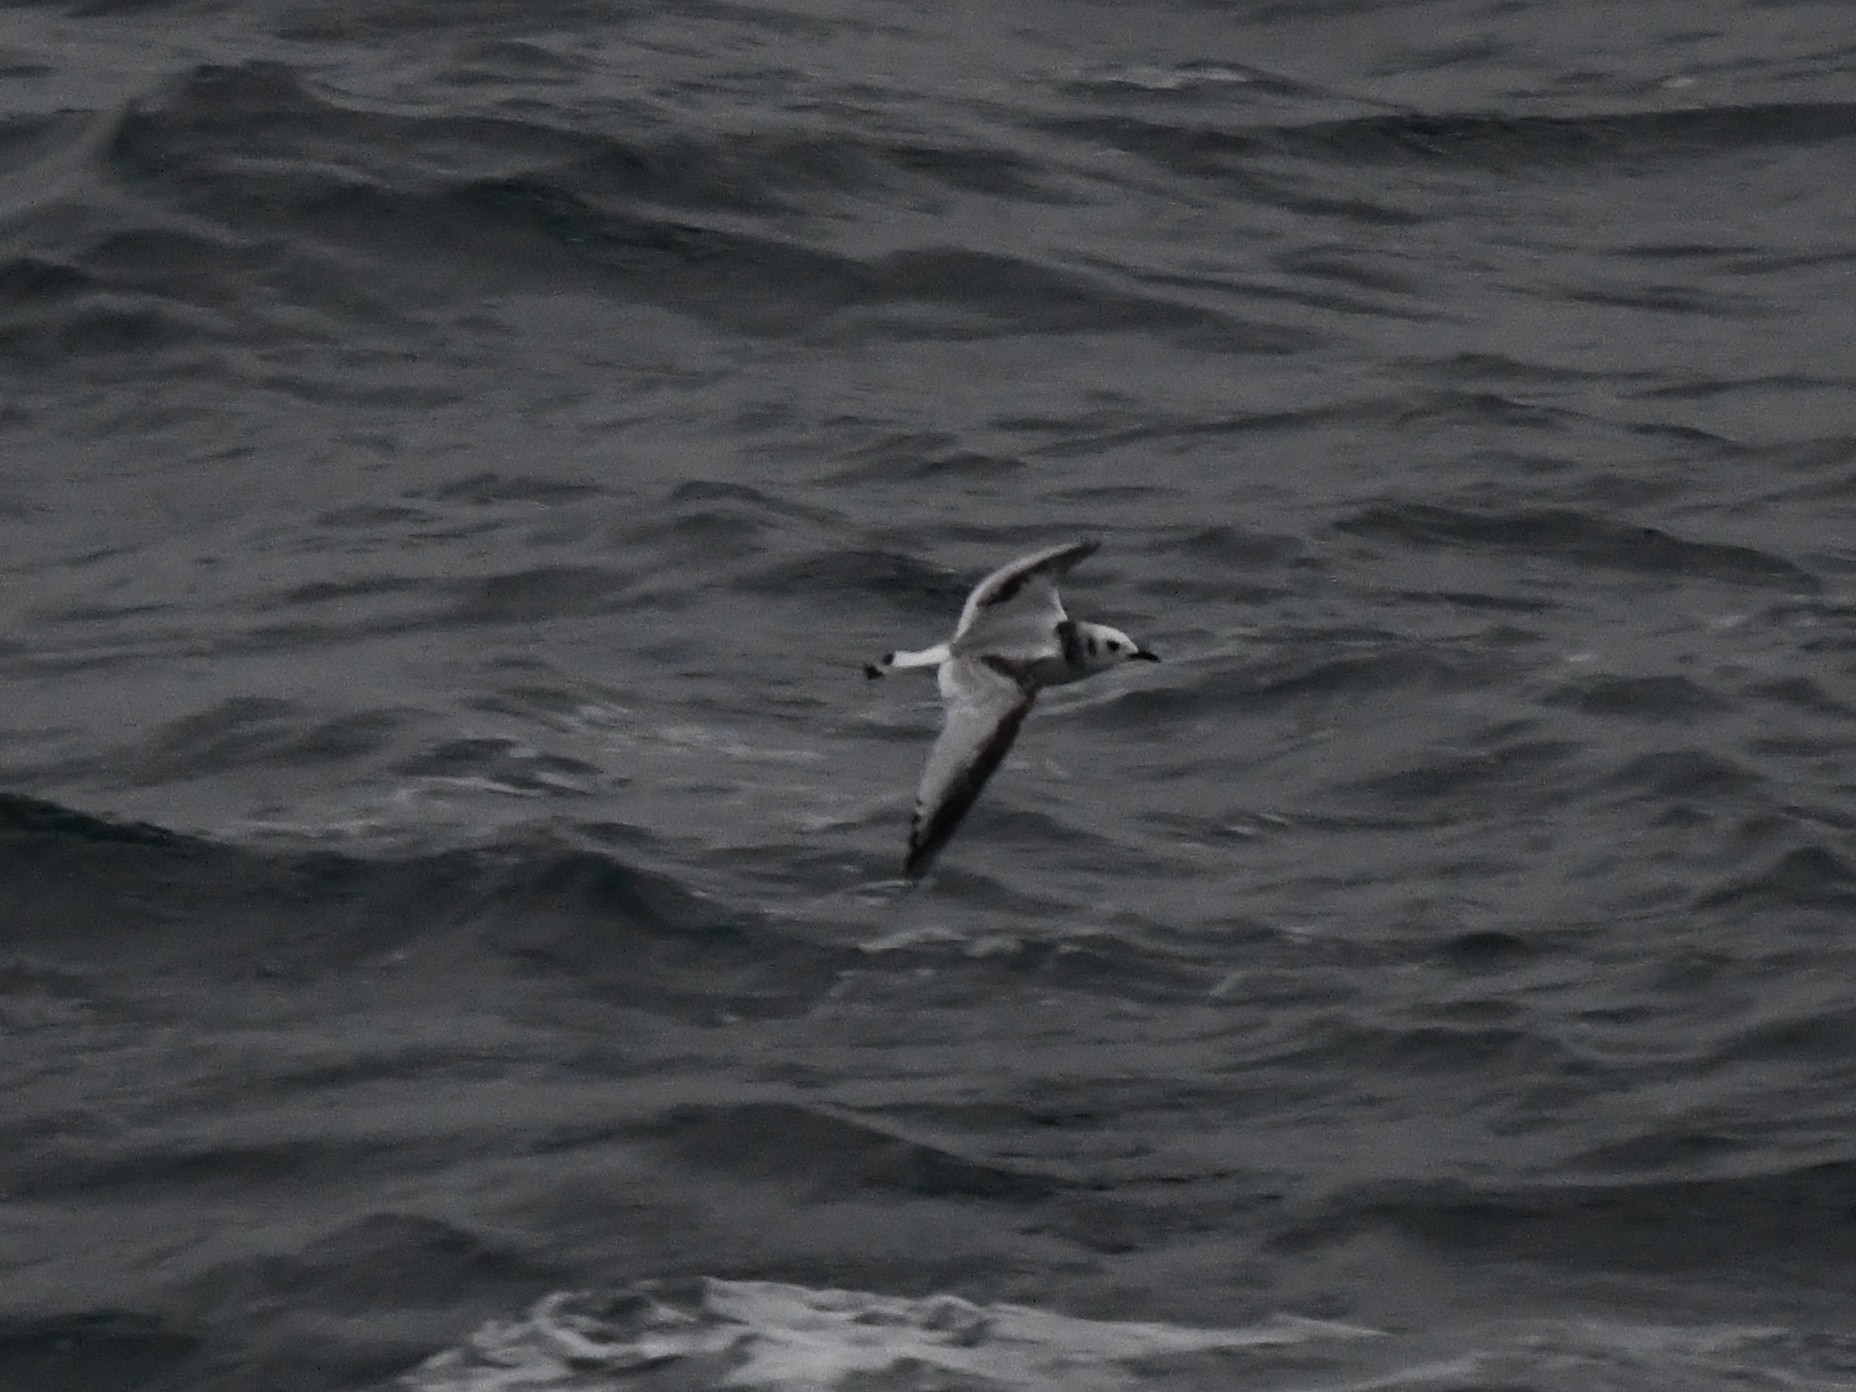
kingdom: Animalia
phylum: Chordata
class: Aves
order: Charadriiformes
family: Laridae
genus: Rissa
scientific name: Rissa tridactyla
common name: Black-legged kittiwake
